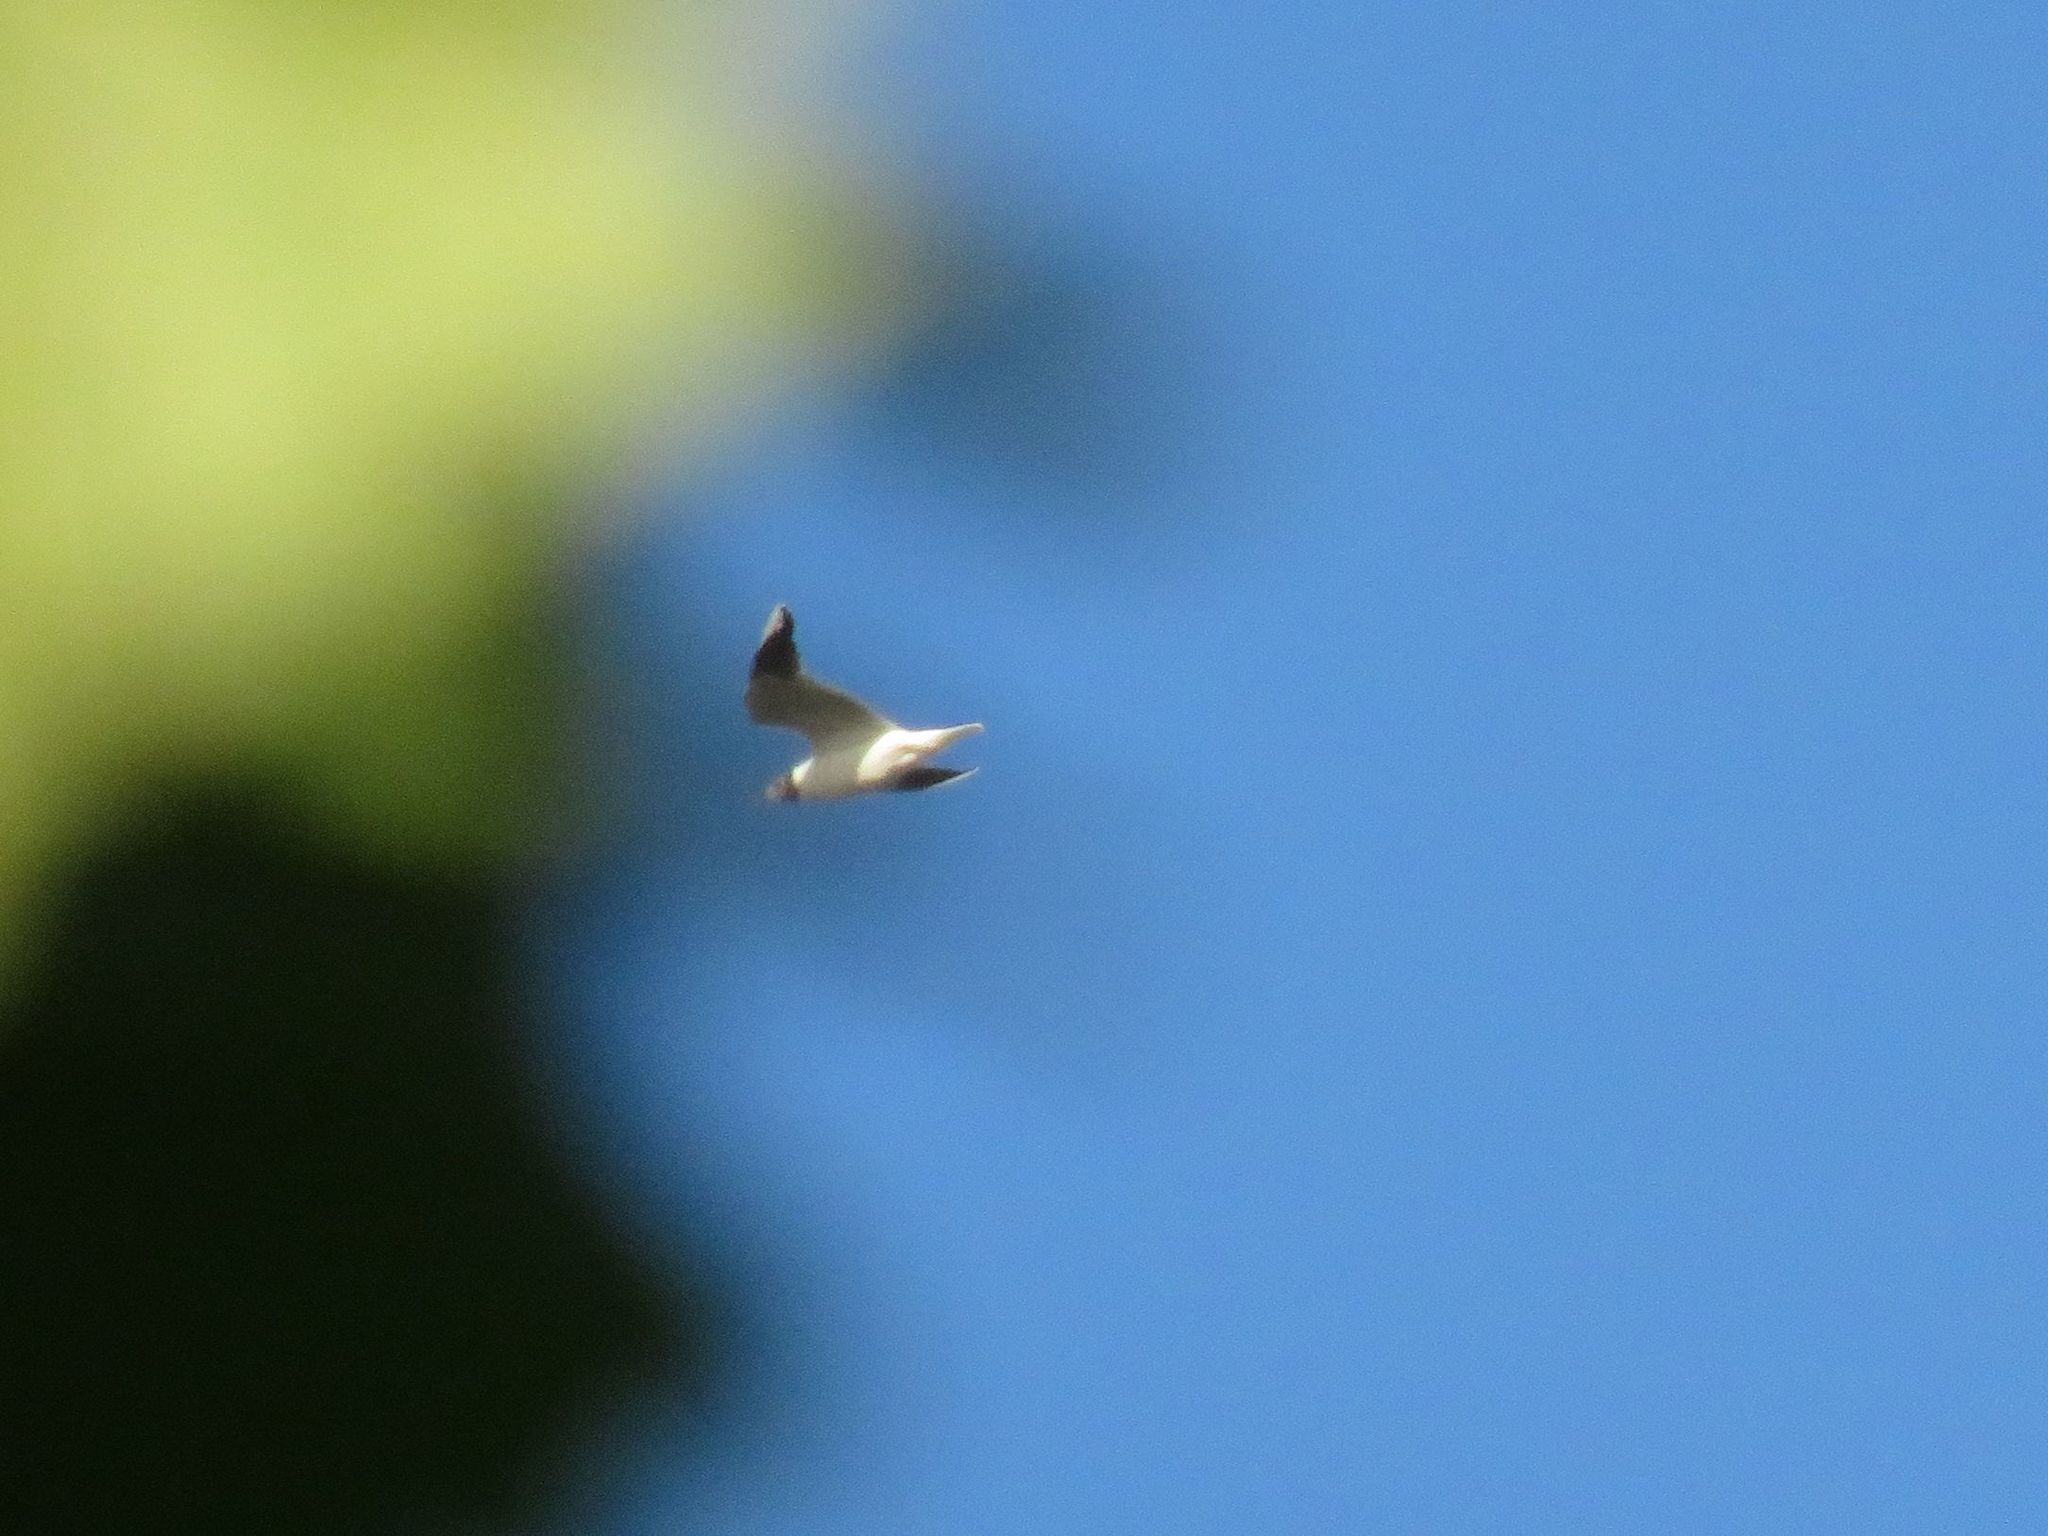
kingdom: Animalia
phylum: Chordata
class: Aves
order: Charadriiformes
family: Laridae
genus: Chroicocephalus
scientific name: Chroicocephalus maculipennis
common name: Brown-hooded gull
